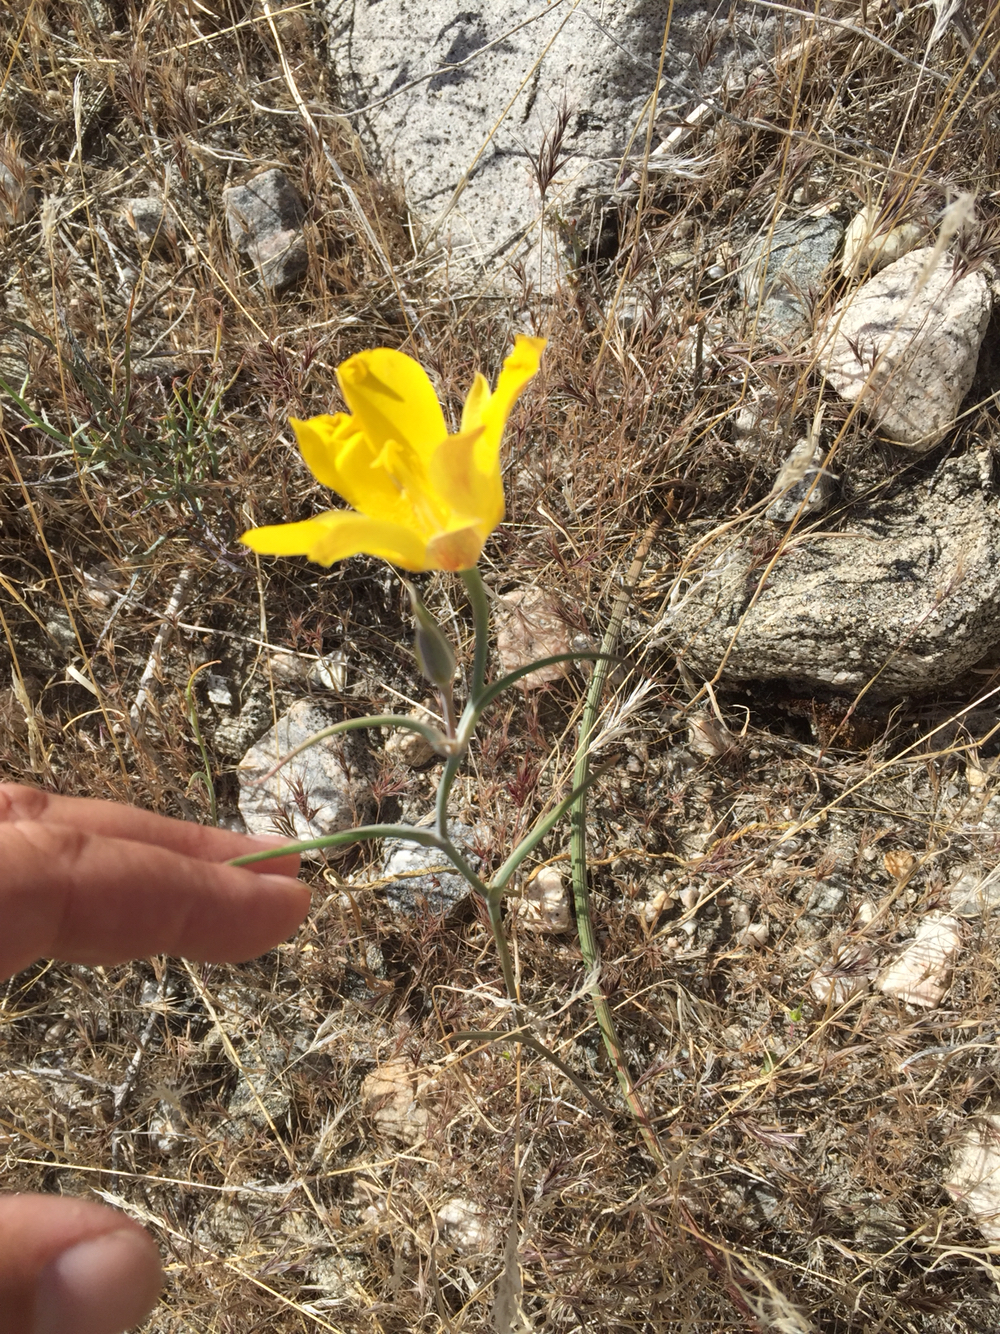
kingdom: Plantae
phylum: Tracheophyta
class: Liliopsida
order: Liliales
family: Liliaceae
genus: Calochortus
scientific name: Calochortus concolor
